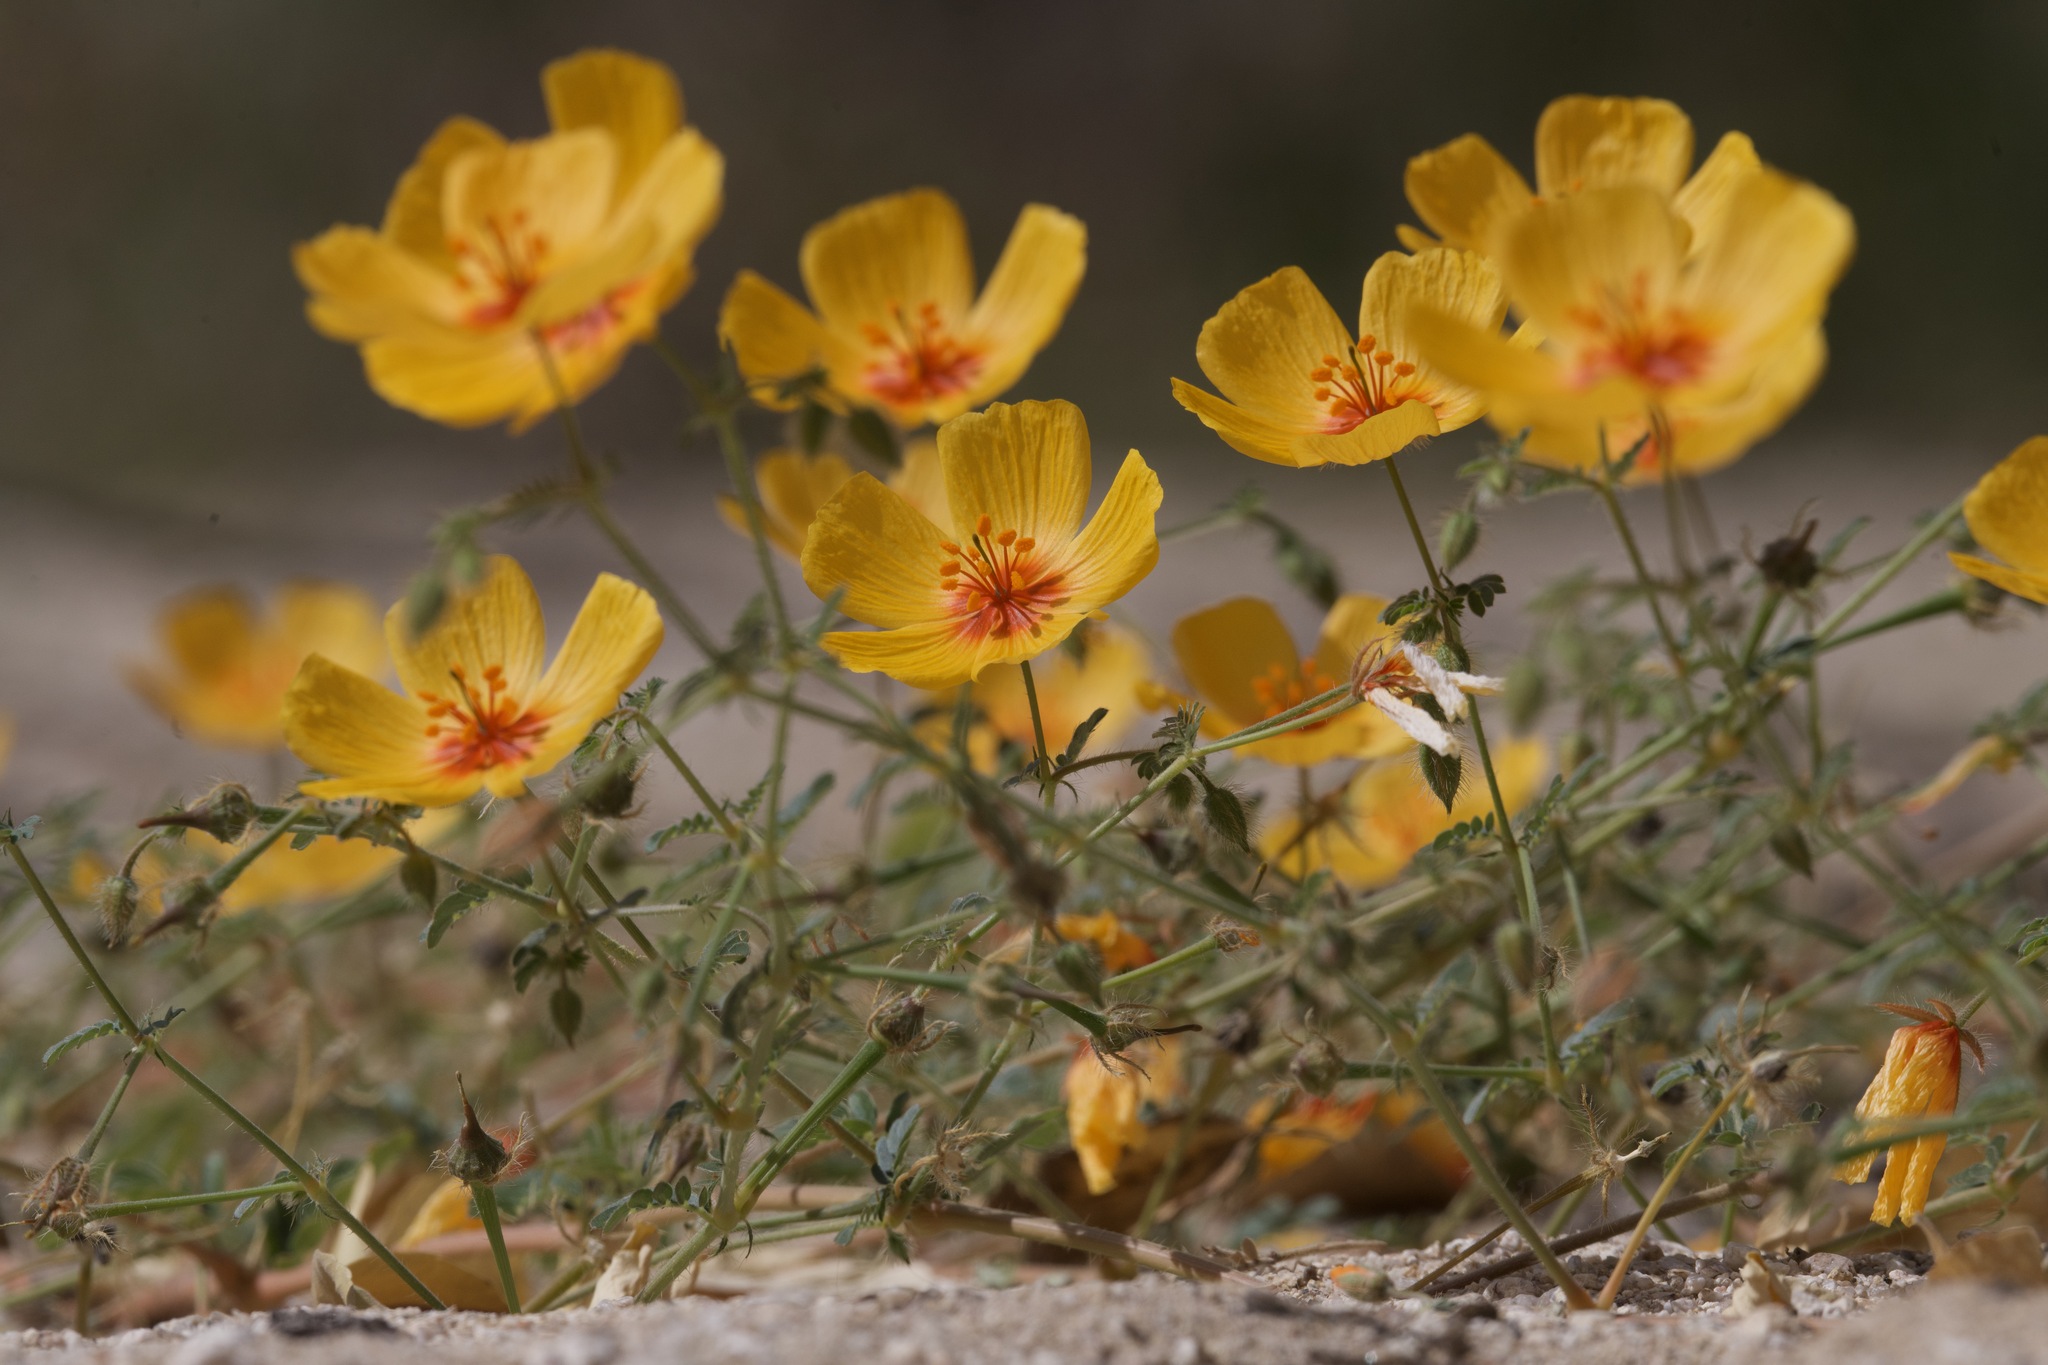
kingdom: Plantae
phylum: Tracheophyta
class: Magnoliopsida
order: Zygophyllales
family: Zygophyllaceae
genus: Kallstroemia
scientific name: Kallstroemia grandiflora
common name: Arizona-poppy
